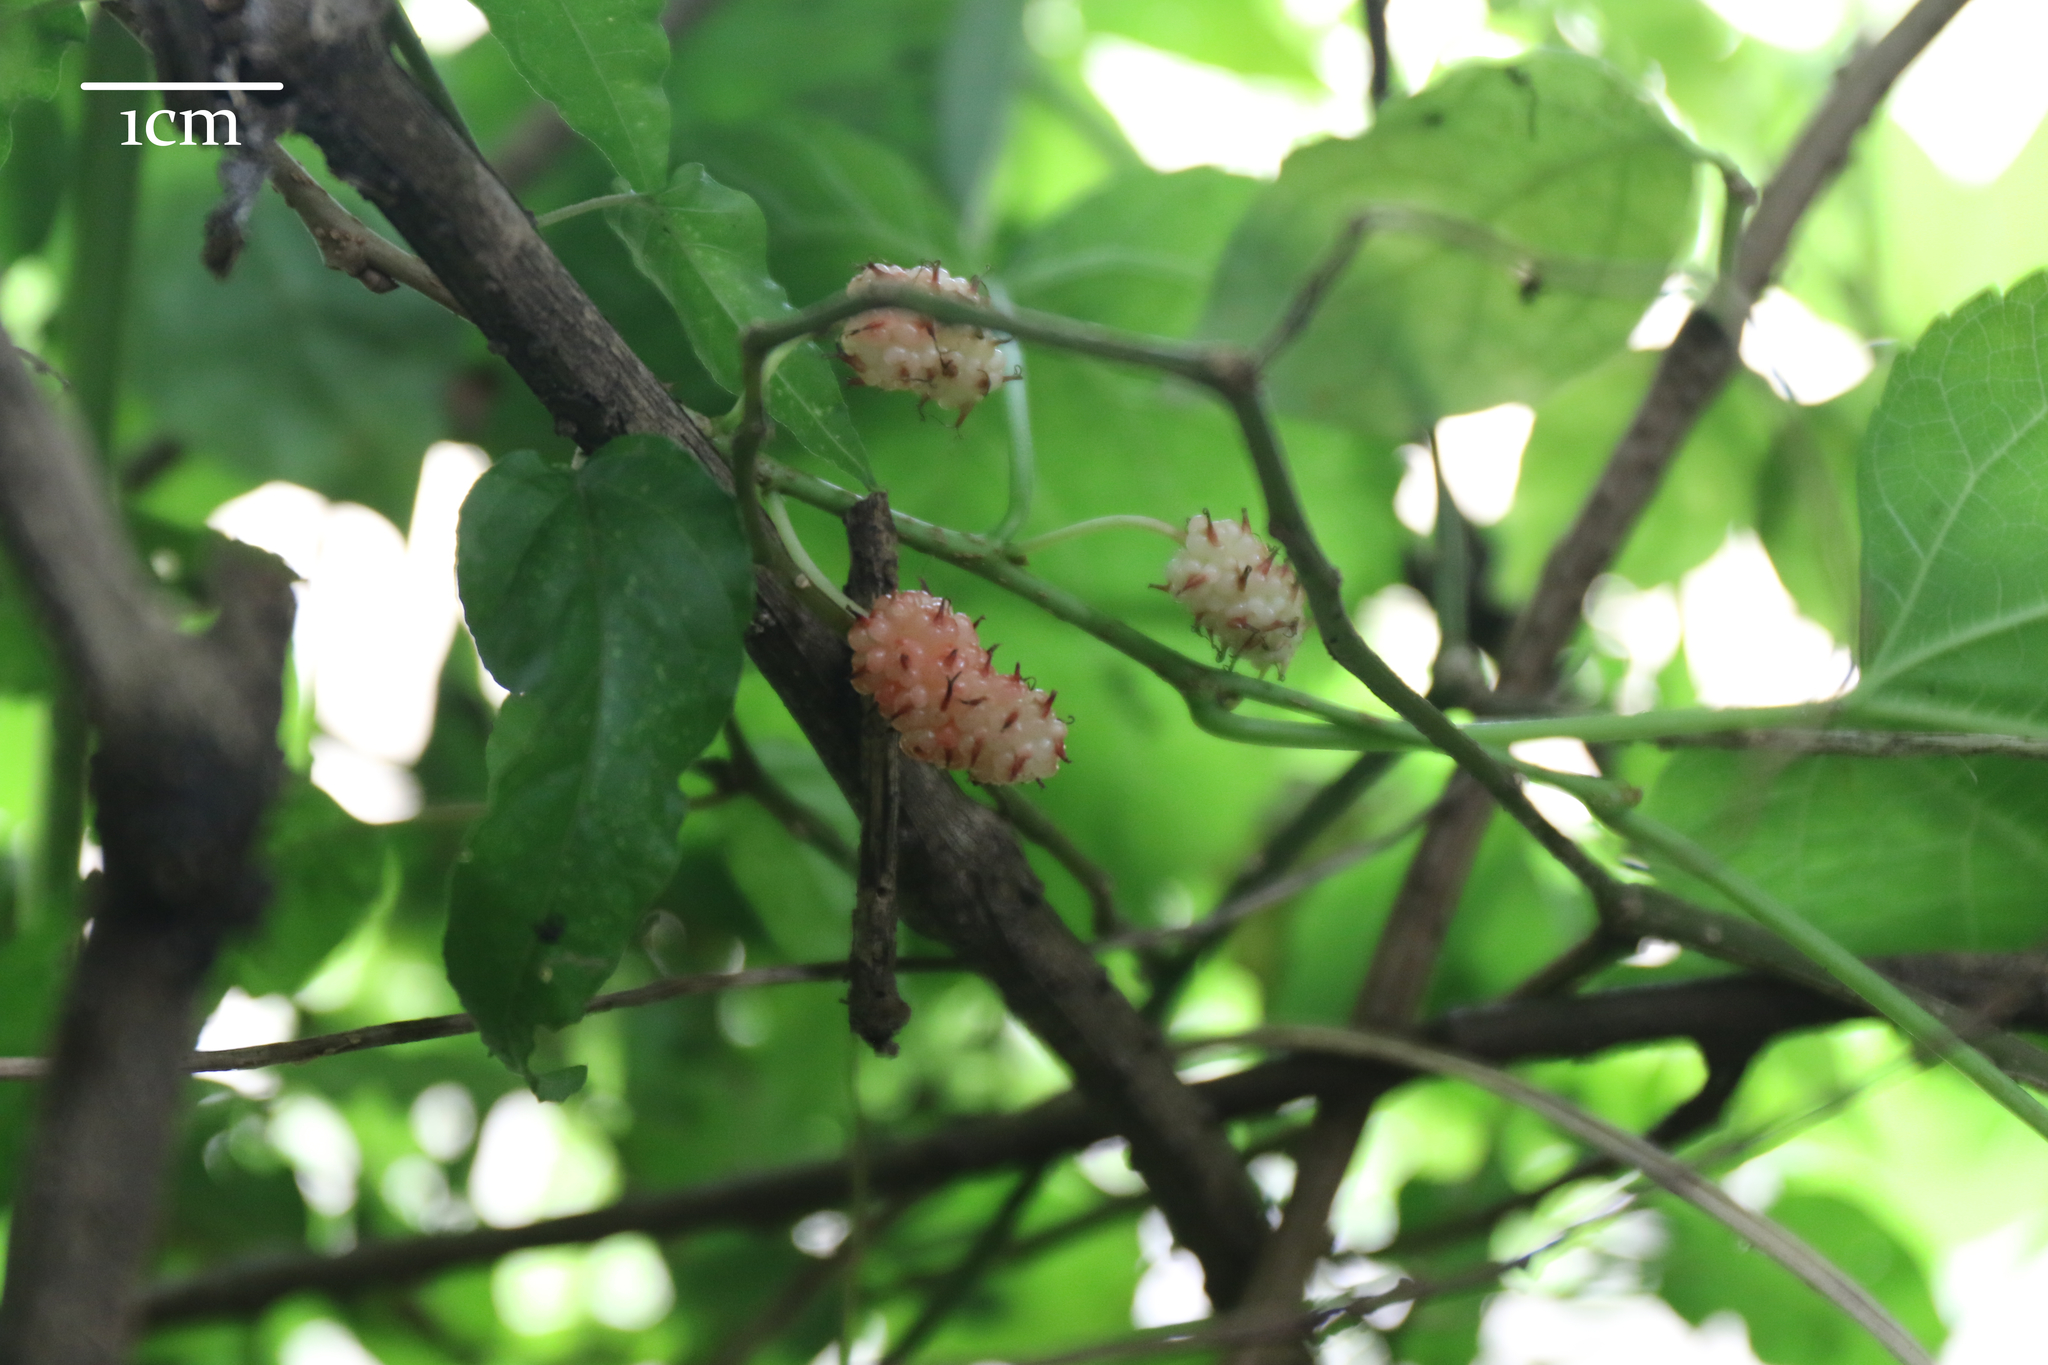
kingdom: Plantae
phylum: Tracheophyta
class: Magnoliopsida
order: Rosales
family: Moraceae
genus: Morus
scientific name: Morus indica
